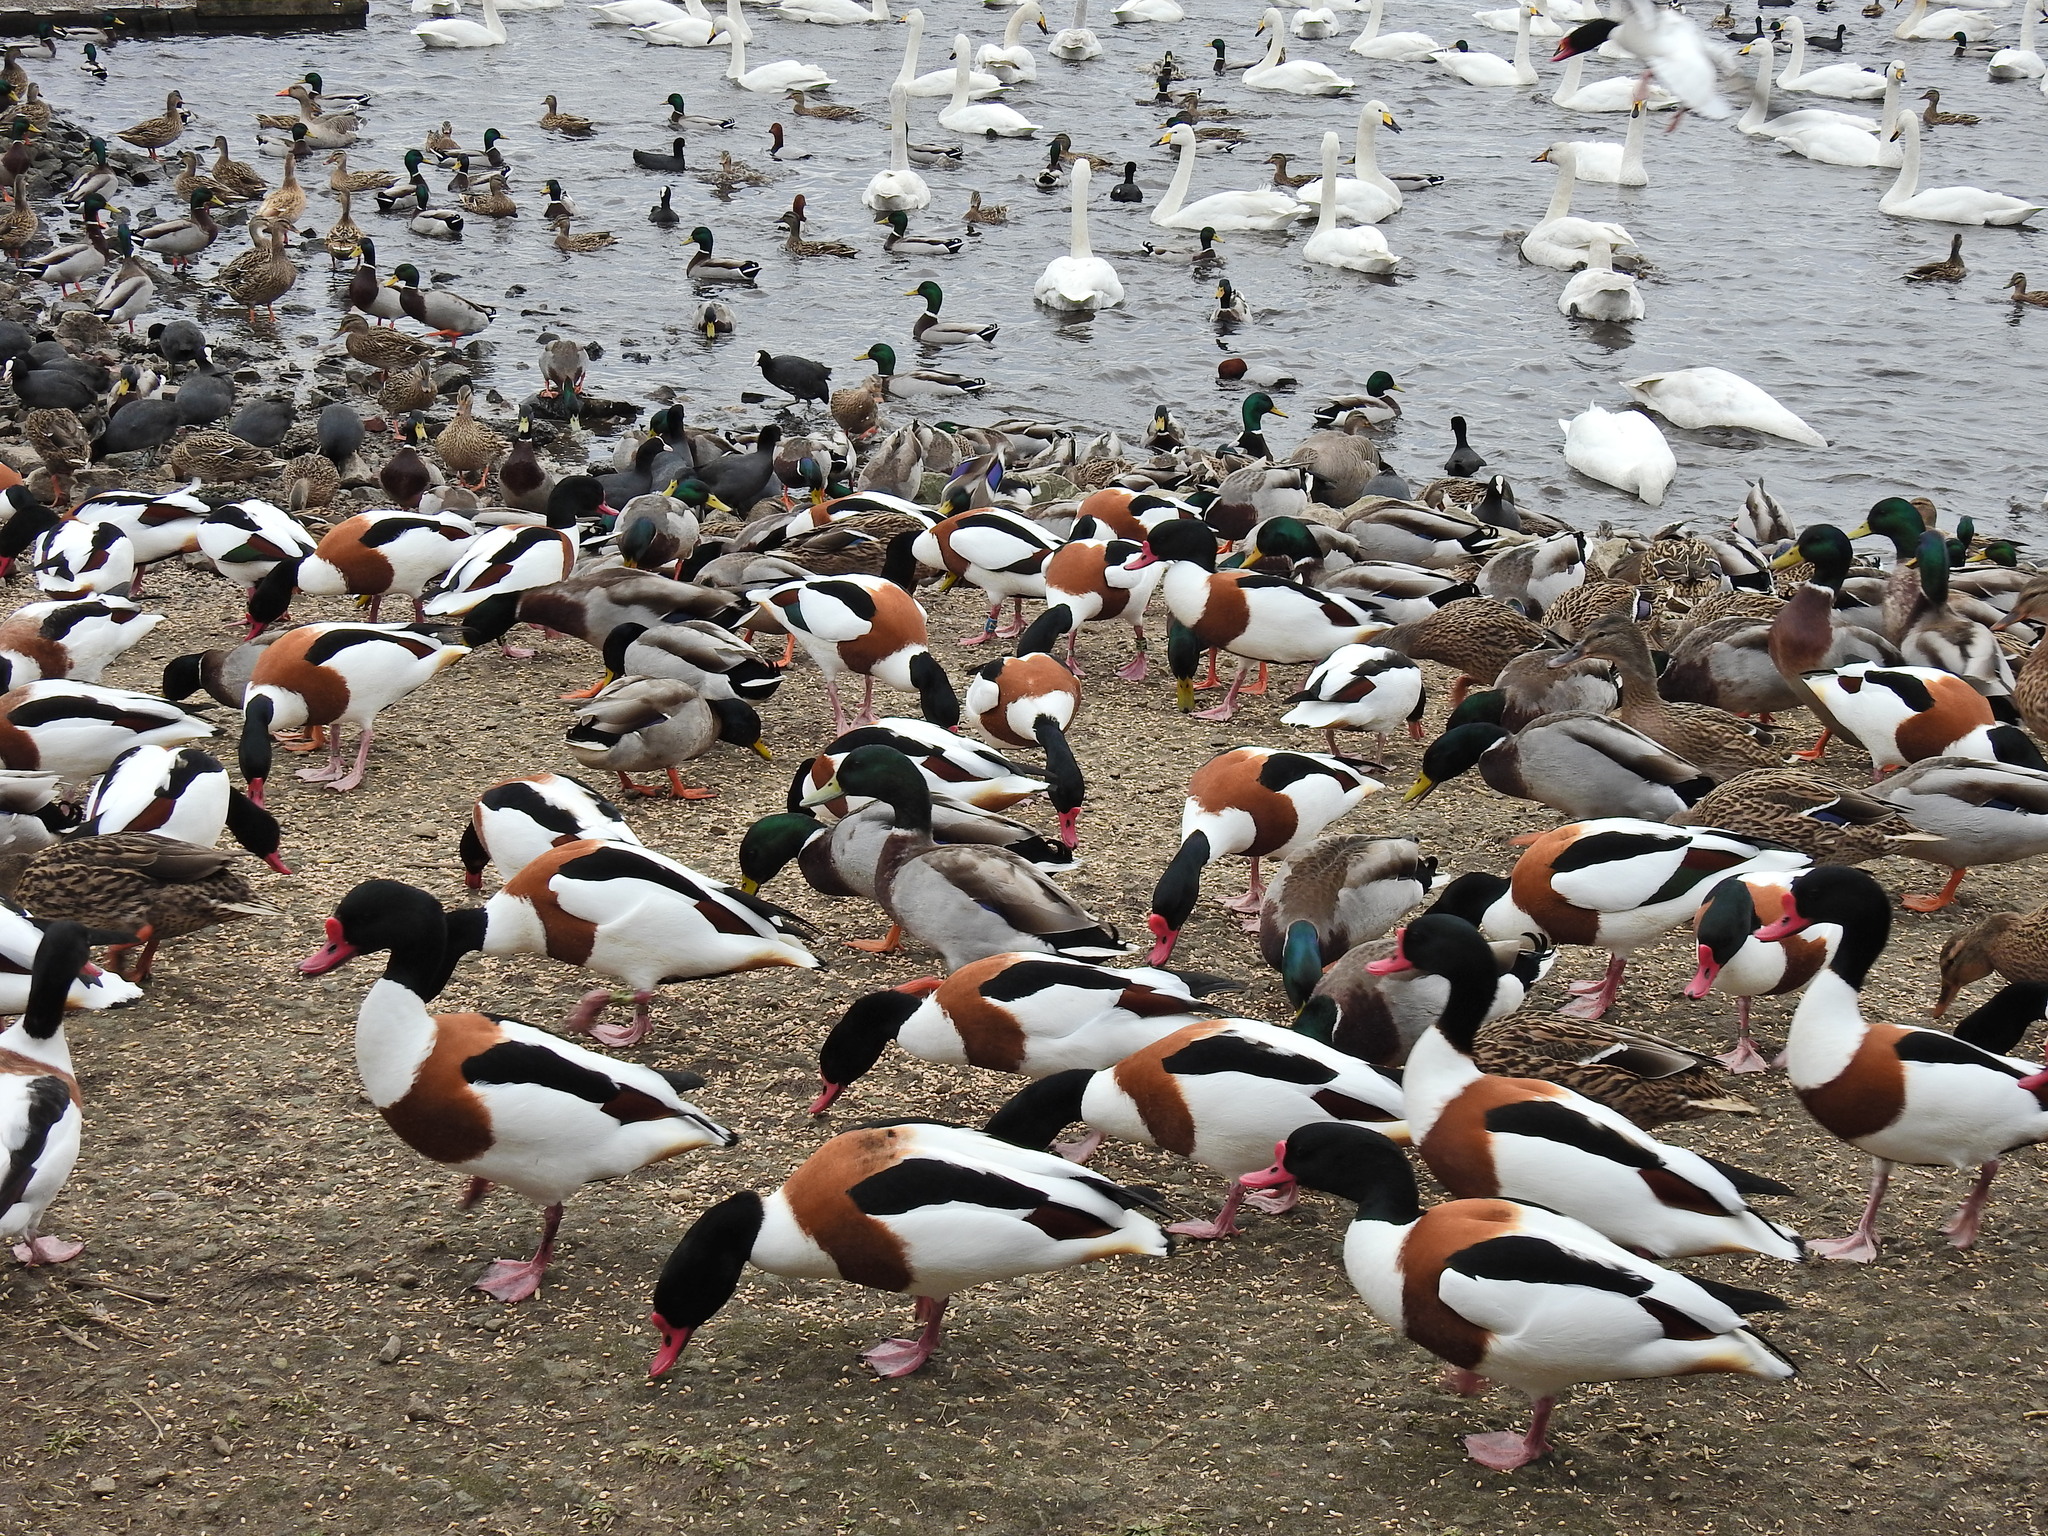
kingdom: Animalia
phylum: Chordata
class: Aves
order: Anseriformes
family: Anatidae
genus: Tadorna
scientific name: Tadorna tadorna
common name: Common shelduck
